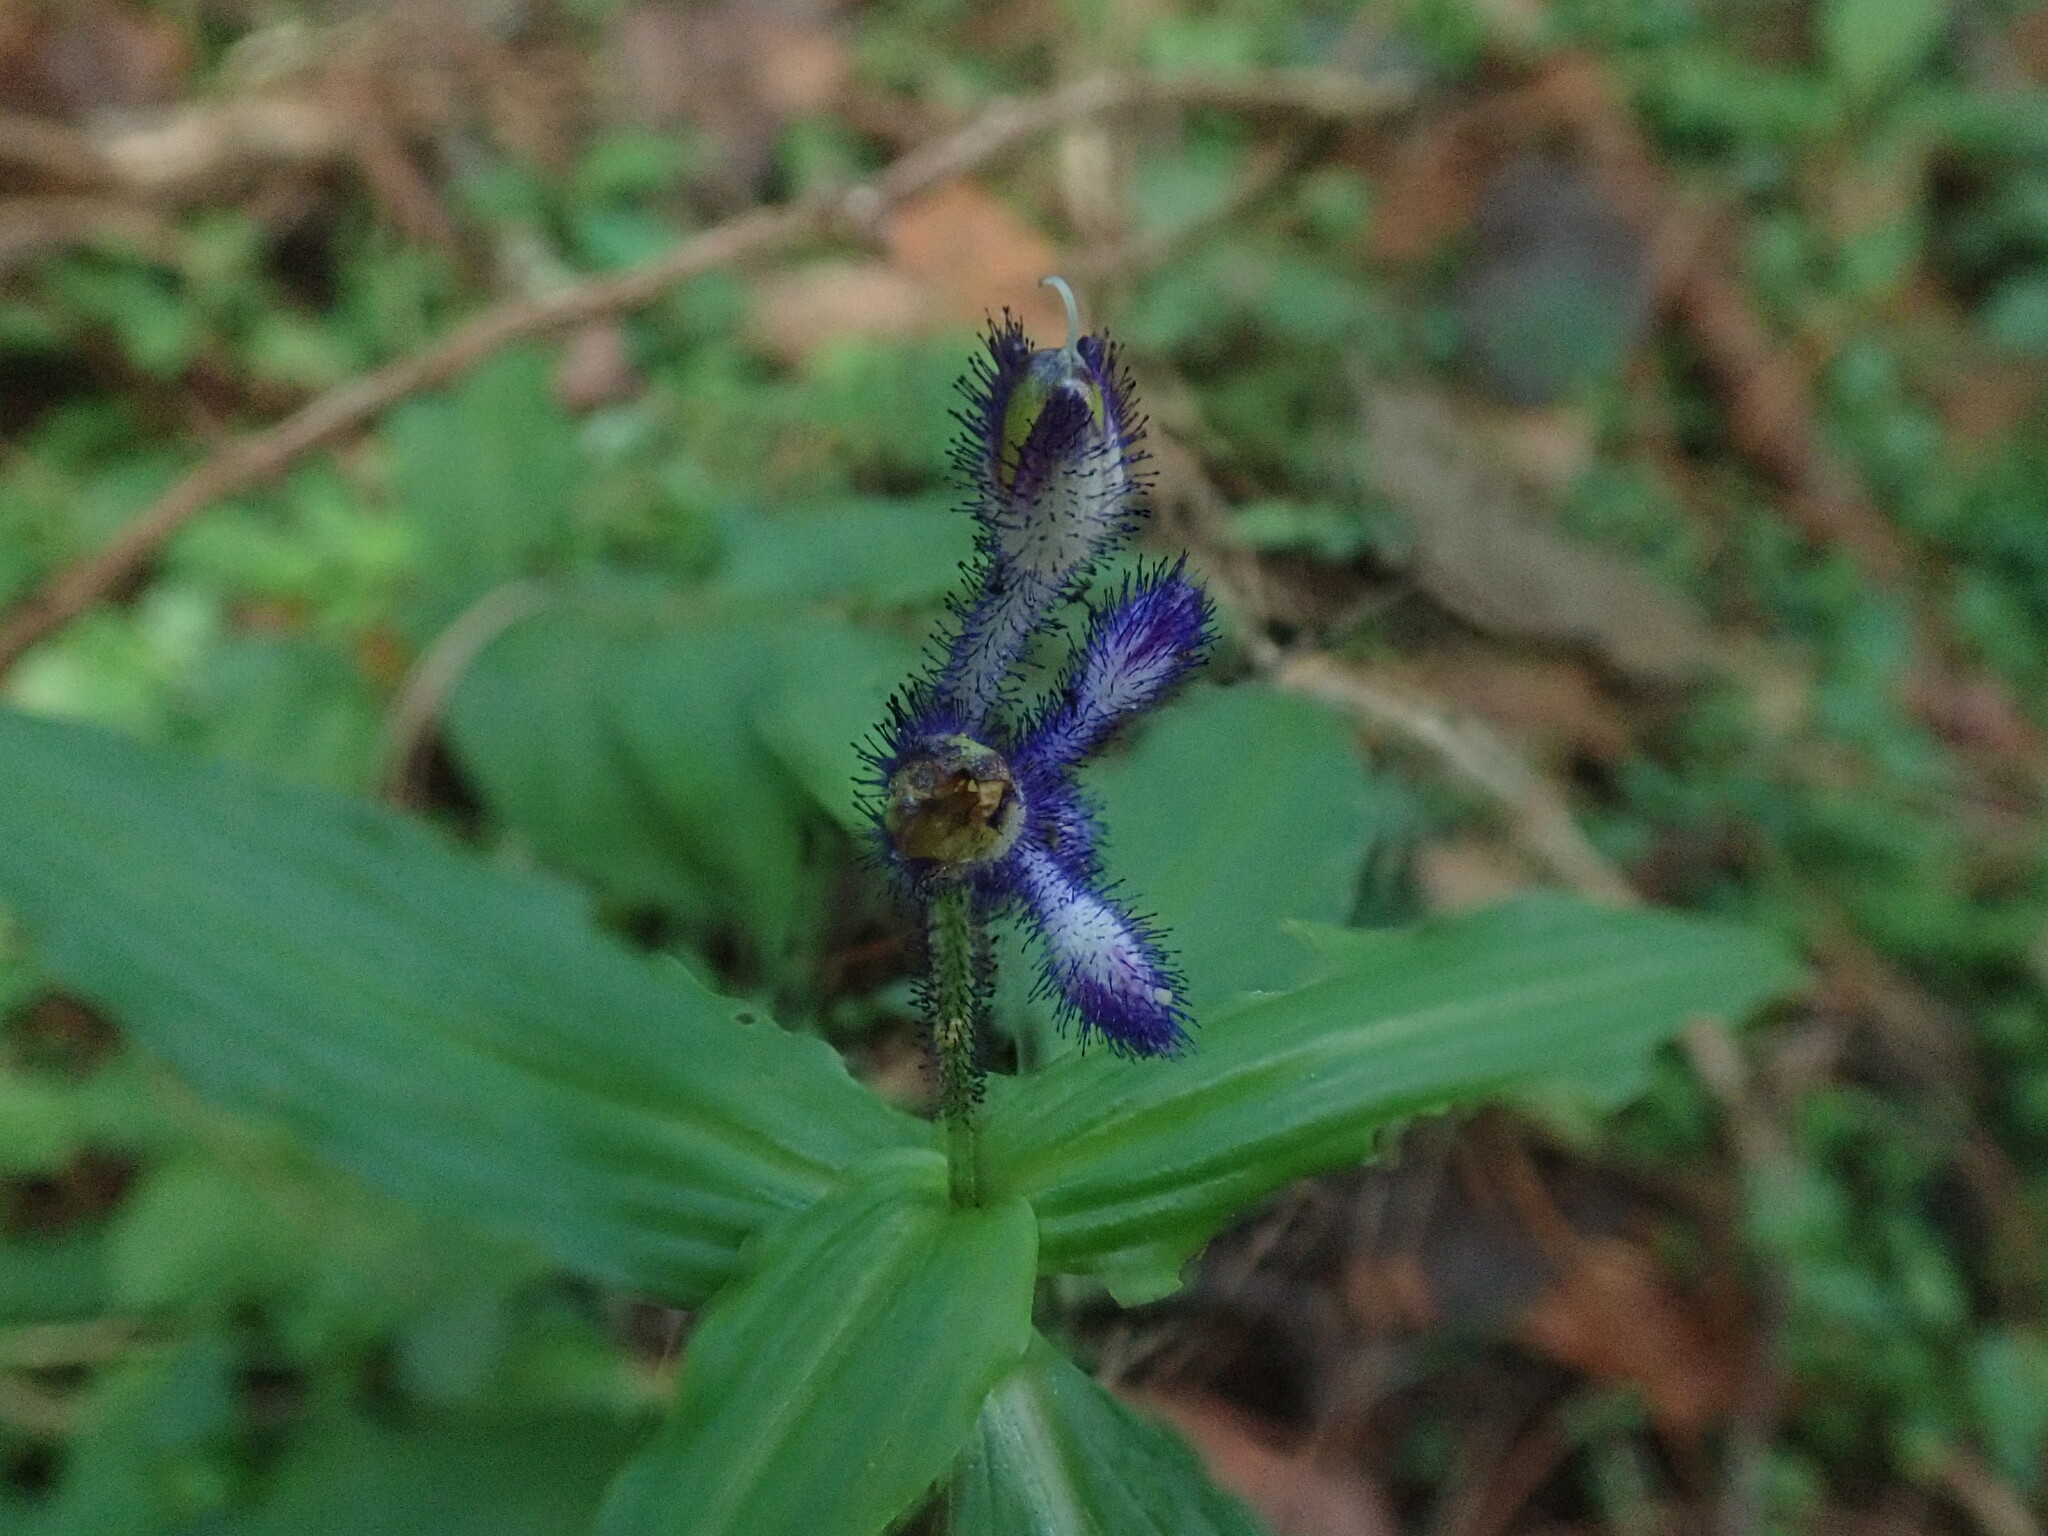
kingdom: Plantae
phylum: Tracheophyta
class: Liliopsida
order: Commelinales
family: Commelinaceae
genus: Tinantia
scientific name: Tinantia violacea
